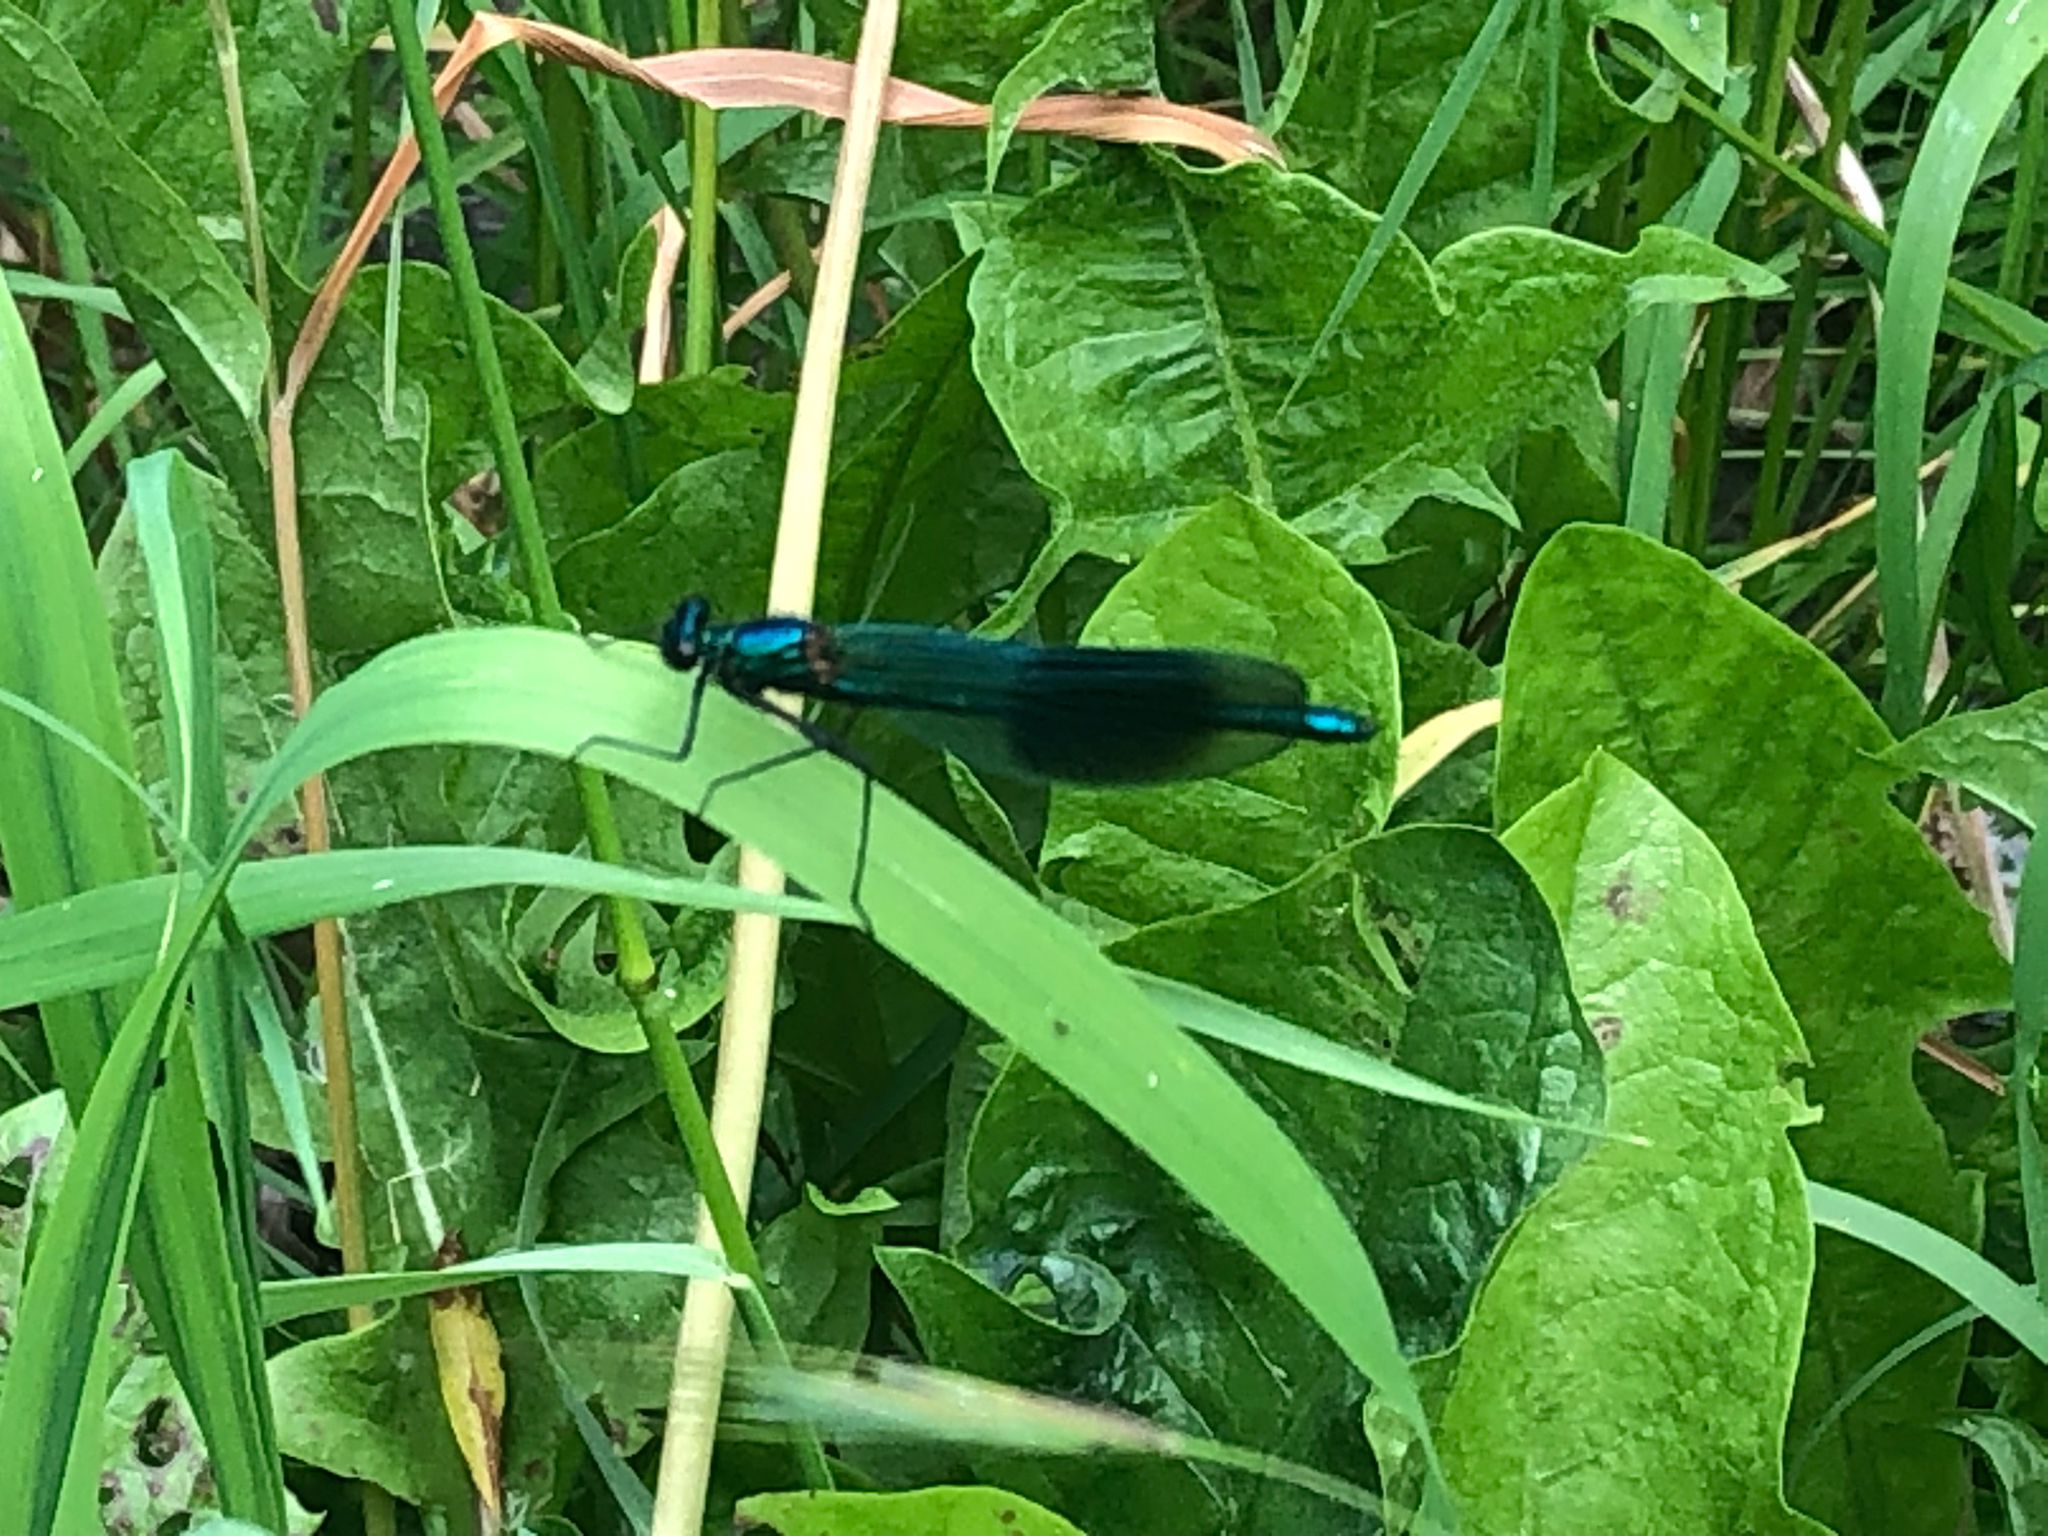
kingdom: Animalia
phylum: Arthropoda
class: Insecta
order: Odonata
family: Calopterygidae
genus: Calopteryx
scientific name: Calopteryx splendens
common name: Banded demoiselle
